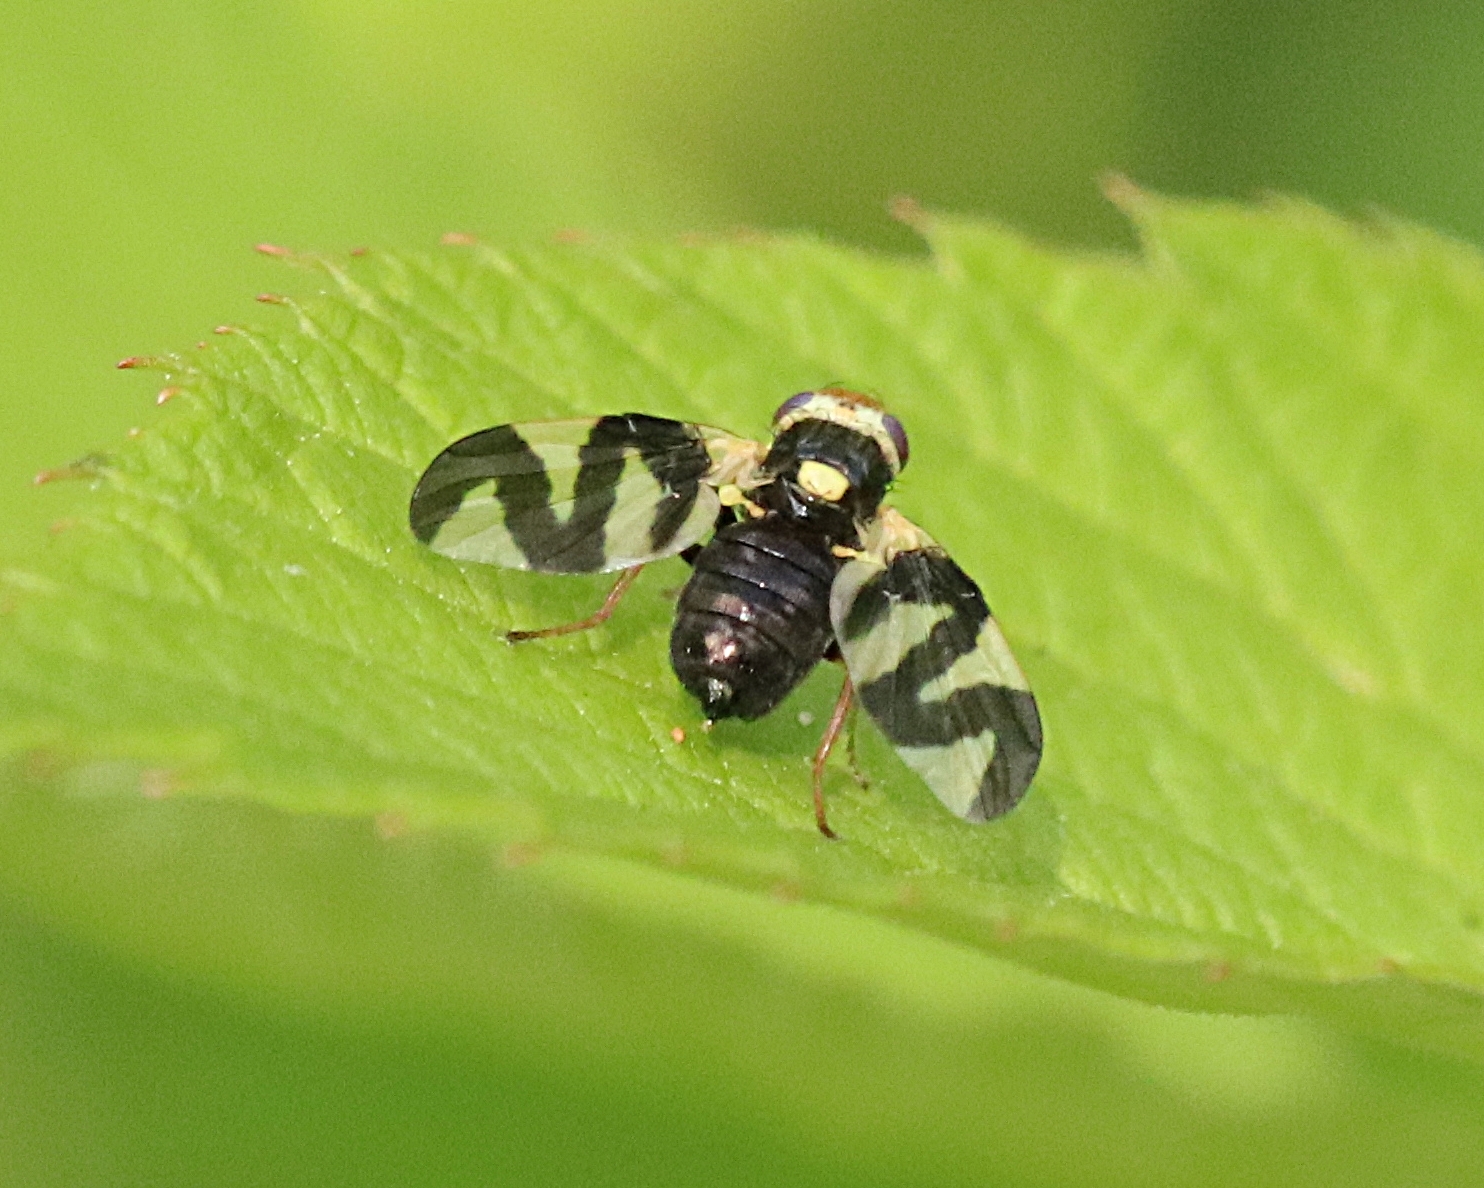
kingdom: Animalia
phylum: Arthropoda
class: Insecta
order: Diptera
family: Tephritidae
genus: Urophora
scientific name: Urophora cardui
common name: Fruit fly
